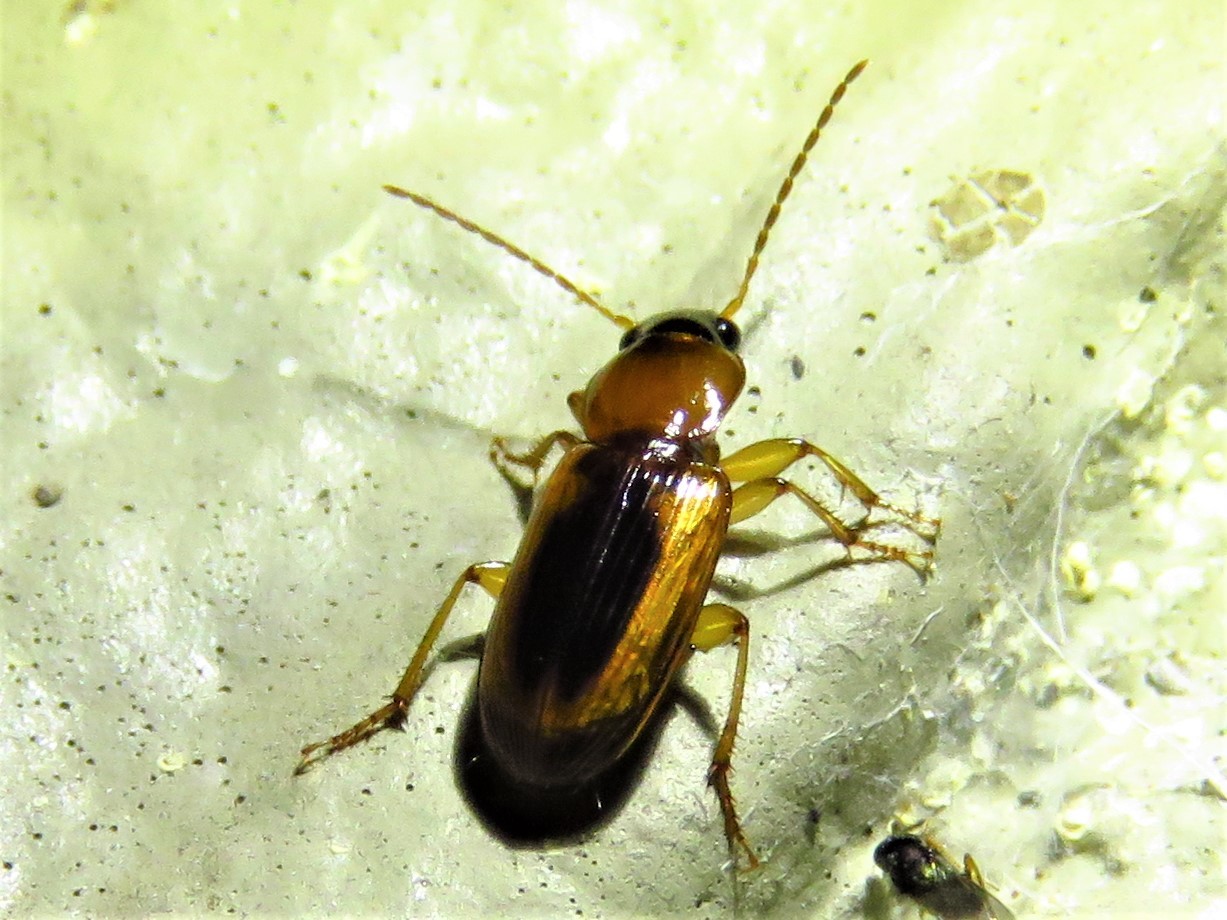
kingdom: Animalia
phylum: Arthropoda
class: Insecta
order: Coleoptera
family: Carabidae
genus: Stenolophus
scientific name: Stenolophus dissimilis
